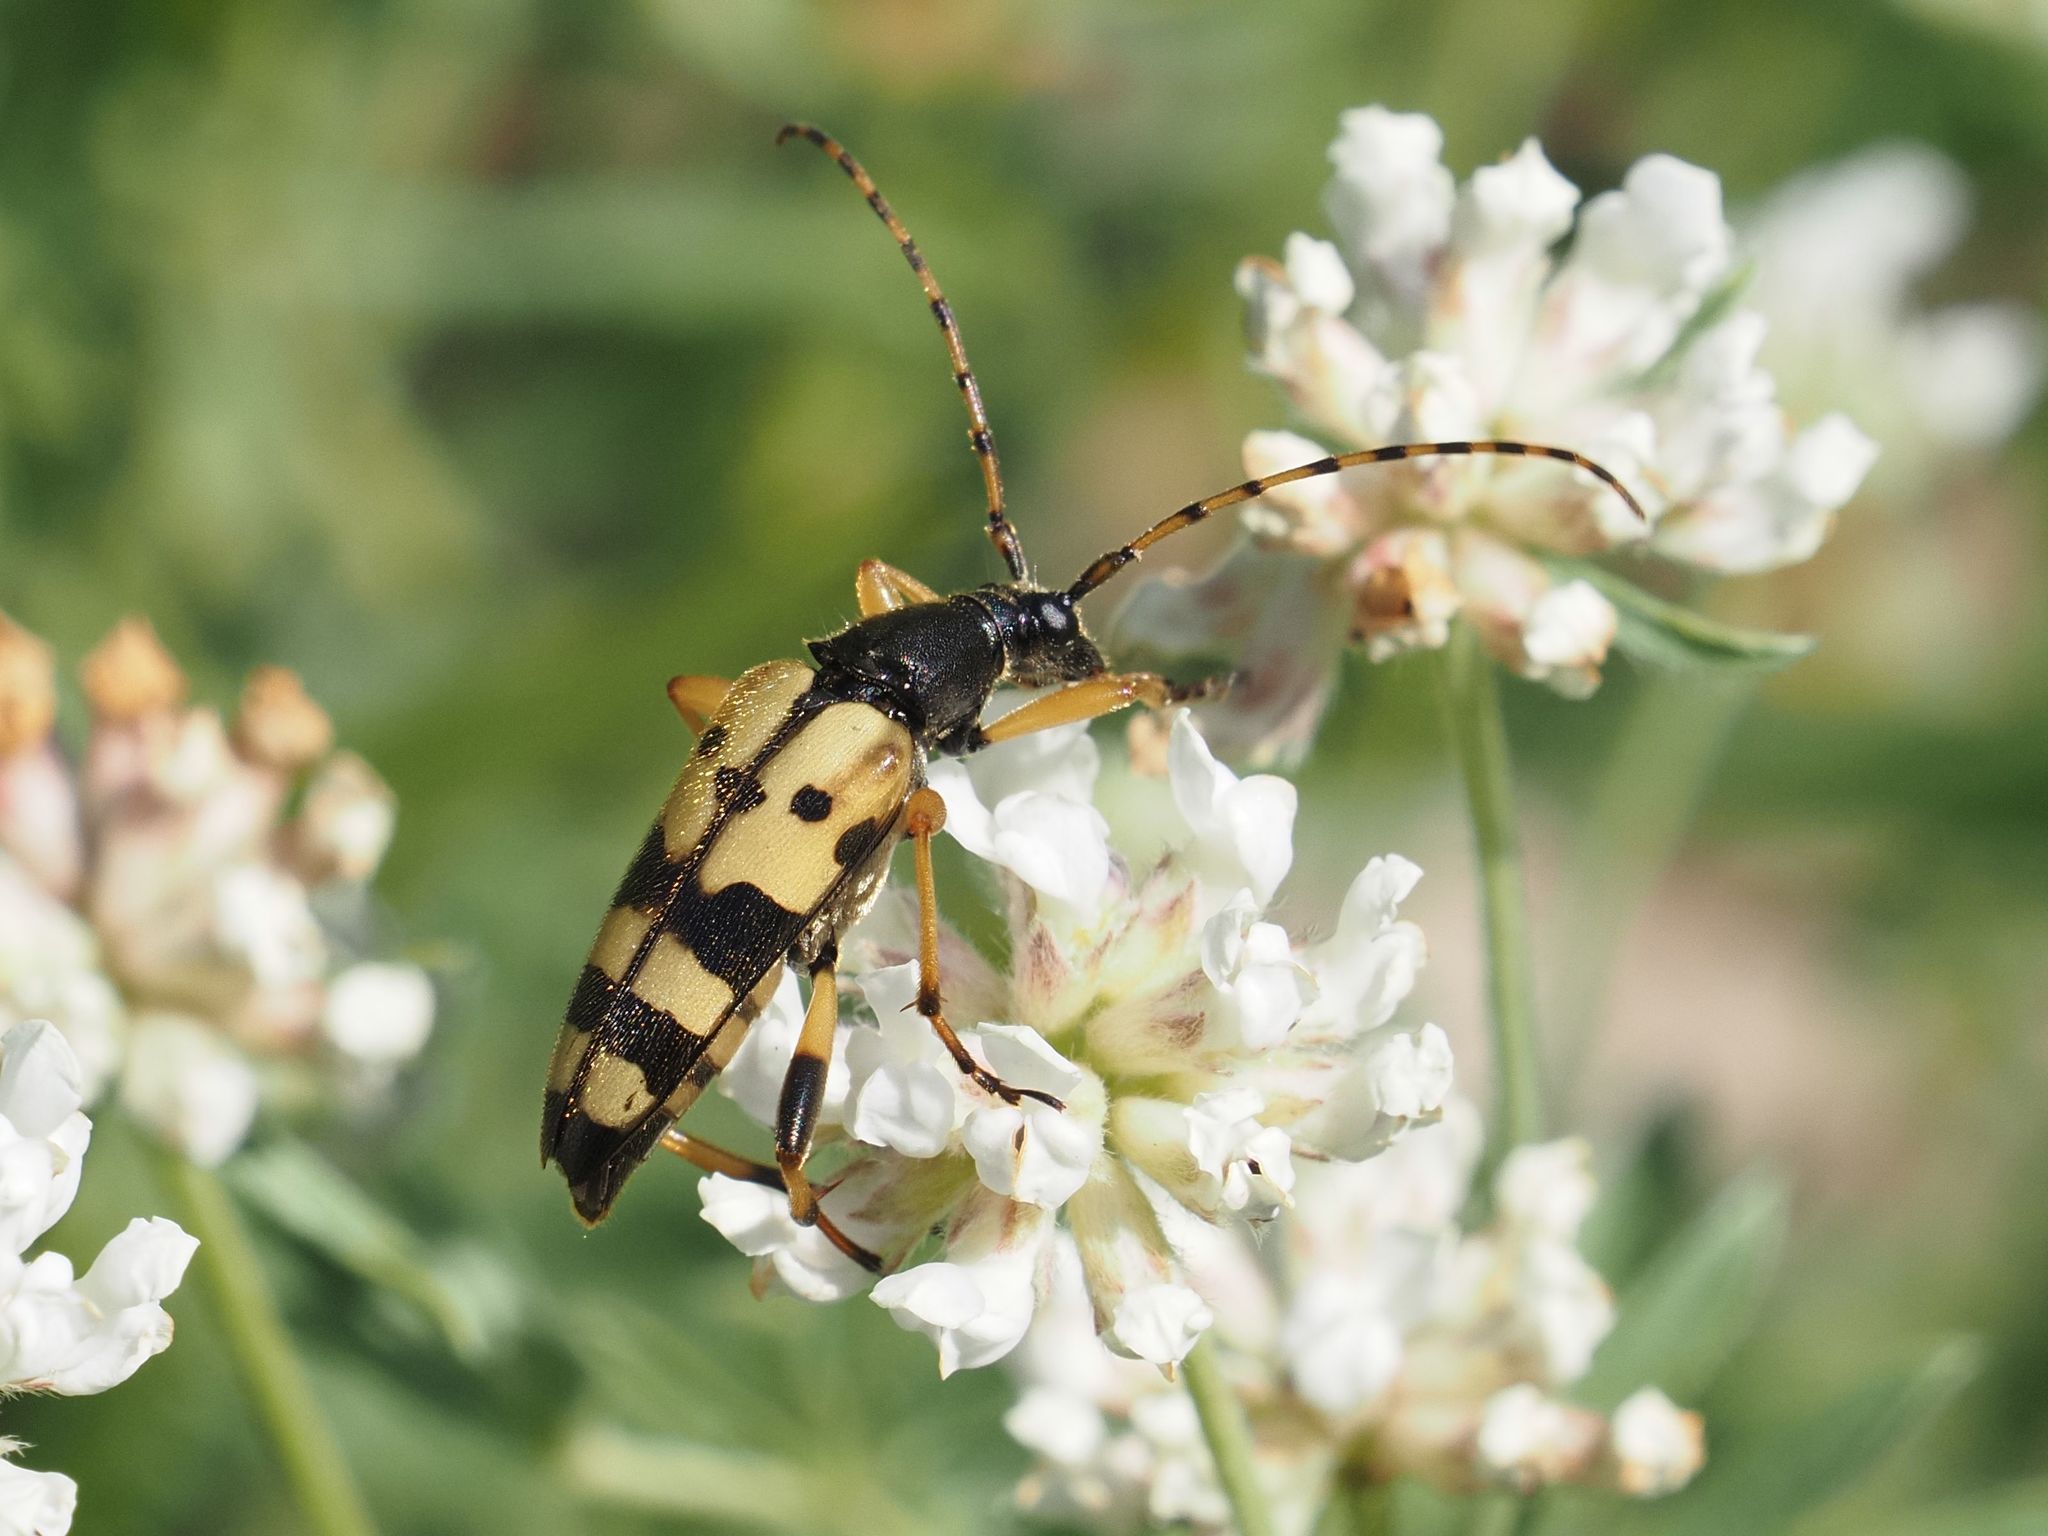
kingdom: Animalia
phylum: Arthropoda
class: Insecta
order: Coleoptera
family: Cerambycidae
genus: Rutpela
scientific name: Rutpela maculata
